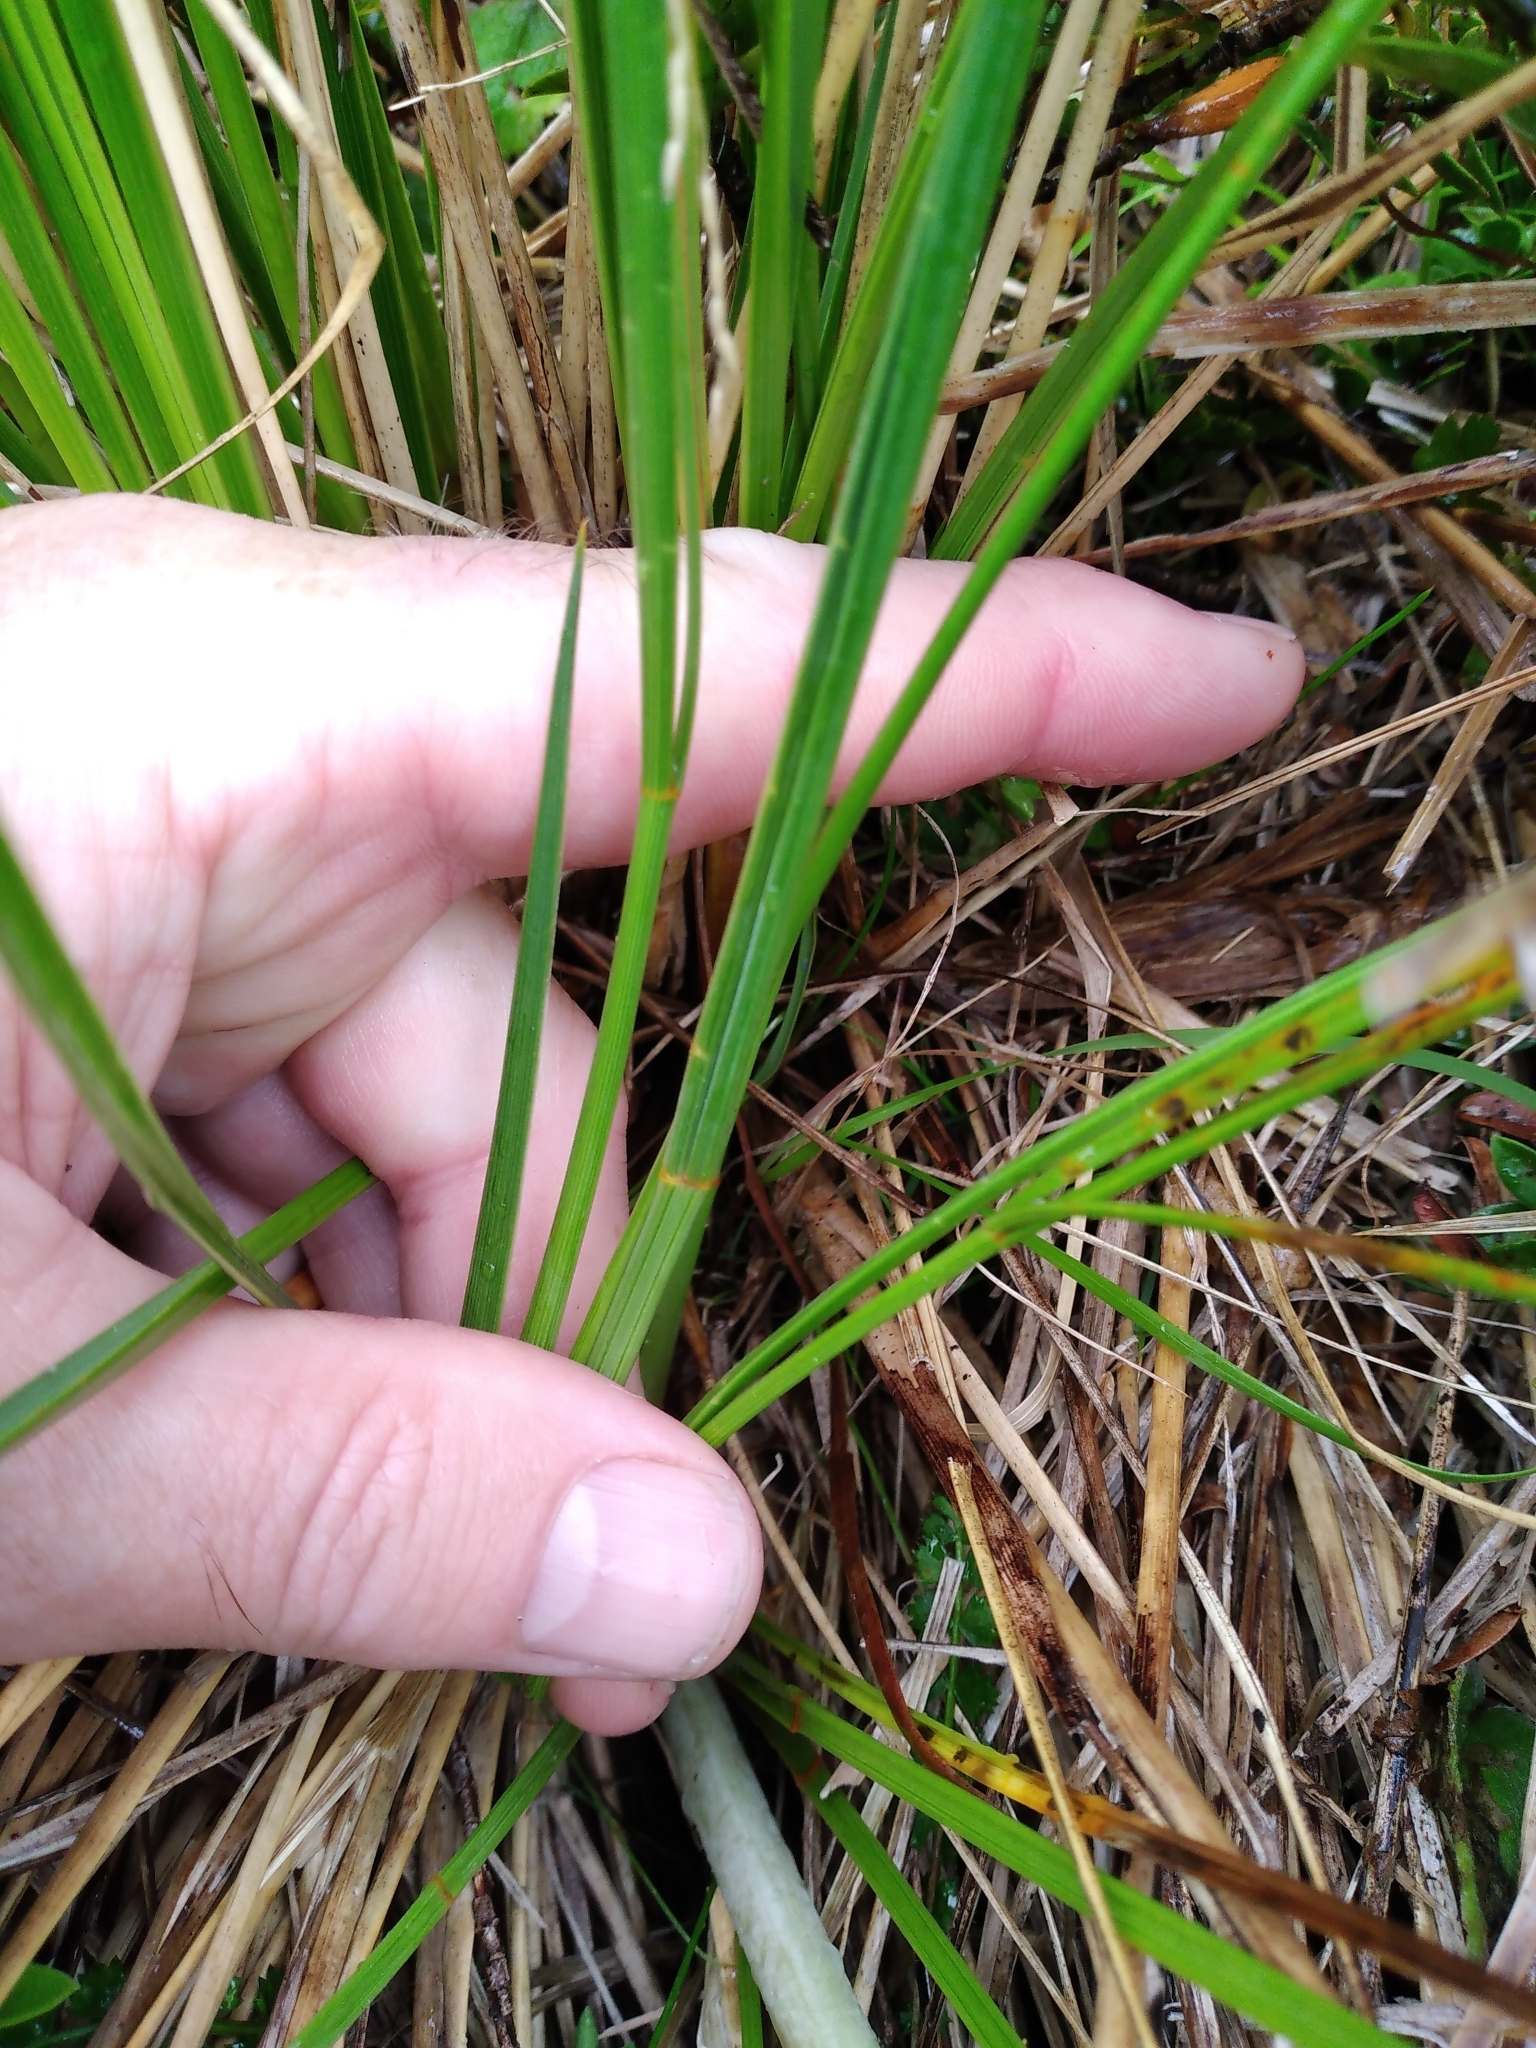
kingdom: Plantae
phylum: Tracheophyta
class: Magnoliopsida
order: Apiales
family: Apiaceae
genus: Aciphylla
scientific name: Aciphylla anomala
